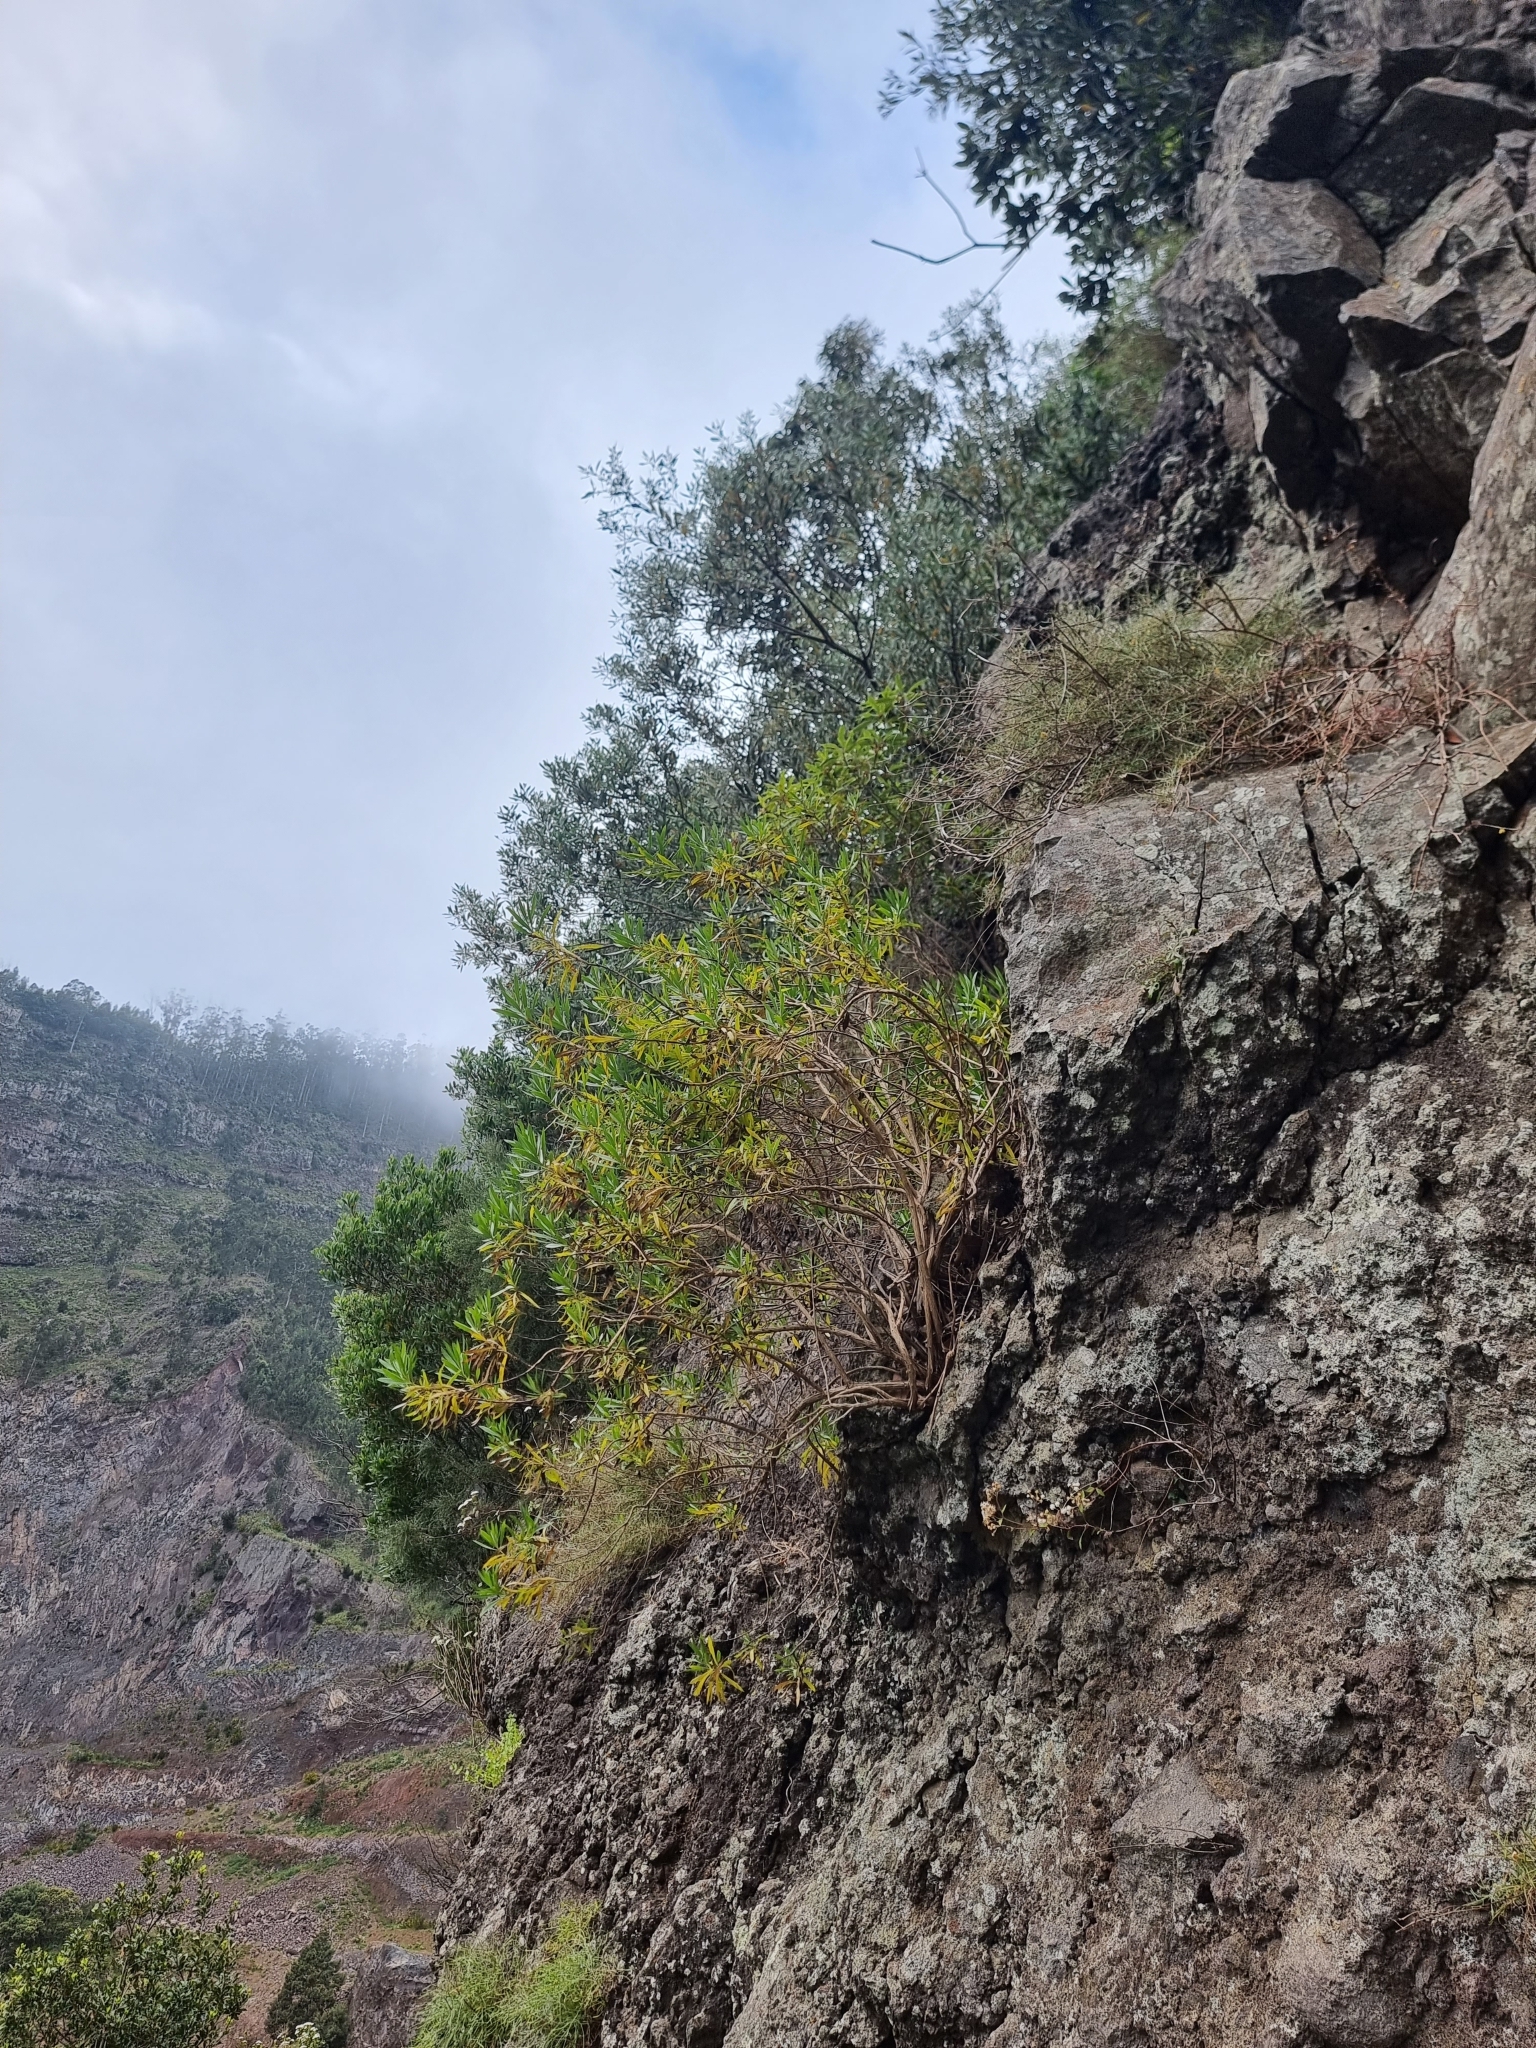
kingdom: Plantae
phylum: Tracheophyta
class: Magnoliopsida
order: Lamiales
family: Plantaginaceae
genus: Globularia
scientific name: Globularia salicina
